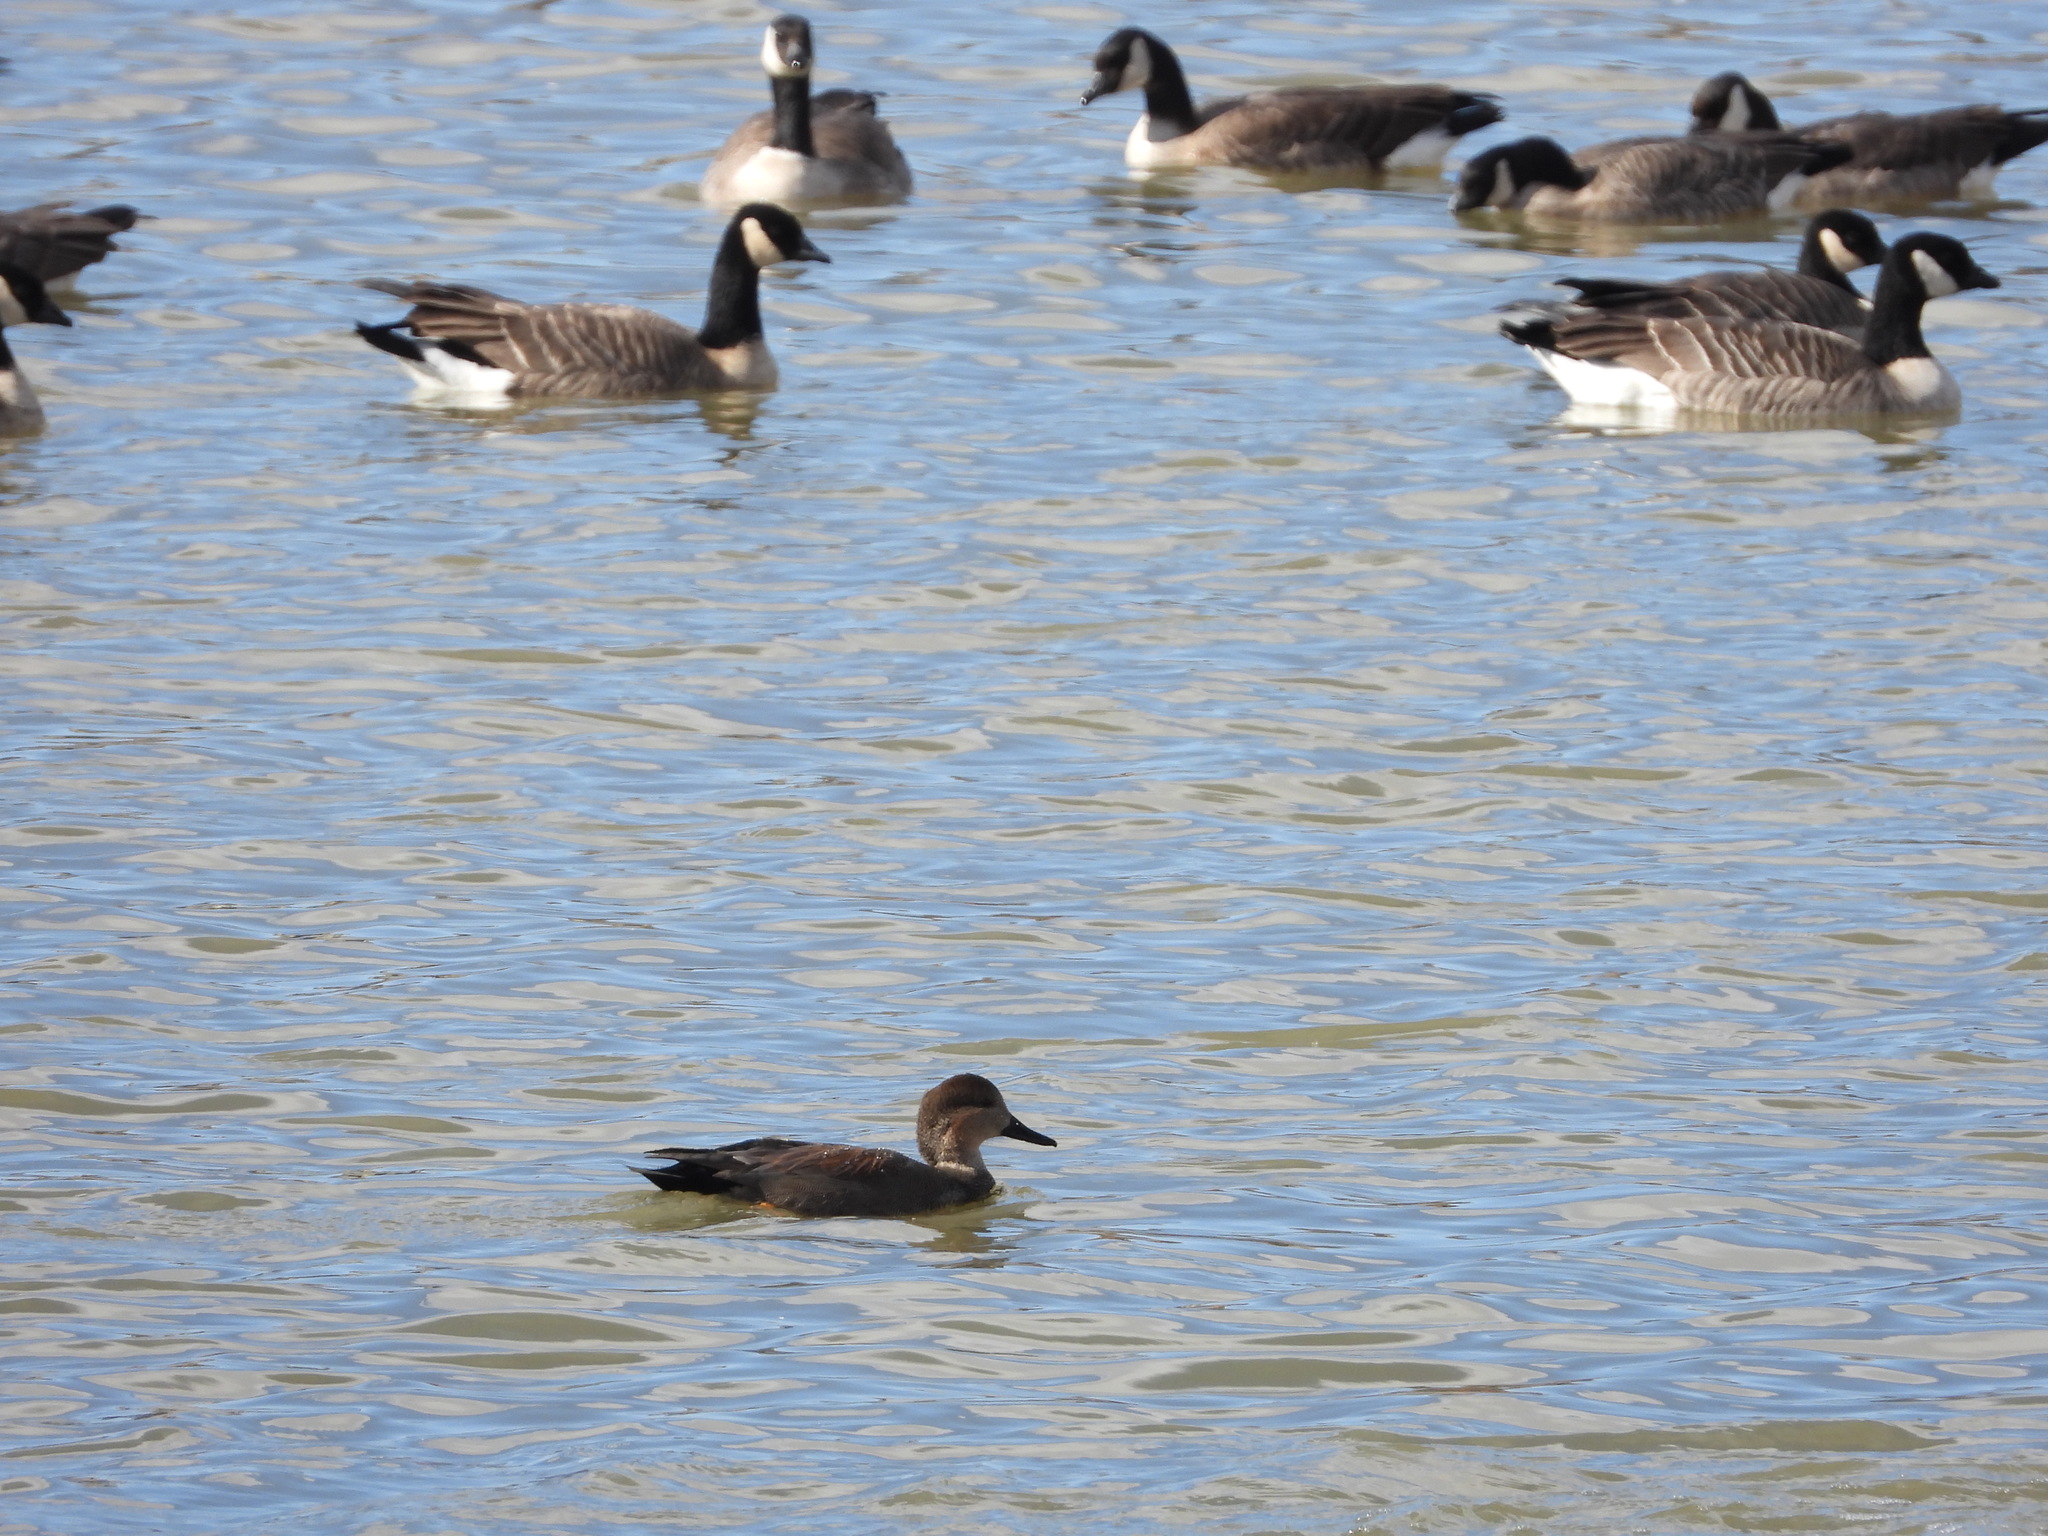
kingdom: Animalia
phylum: Chordata
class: Aves
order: Anseriformes
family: Anatidae
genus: Mareca
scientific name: Mareca strepera
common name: Gadwall
